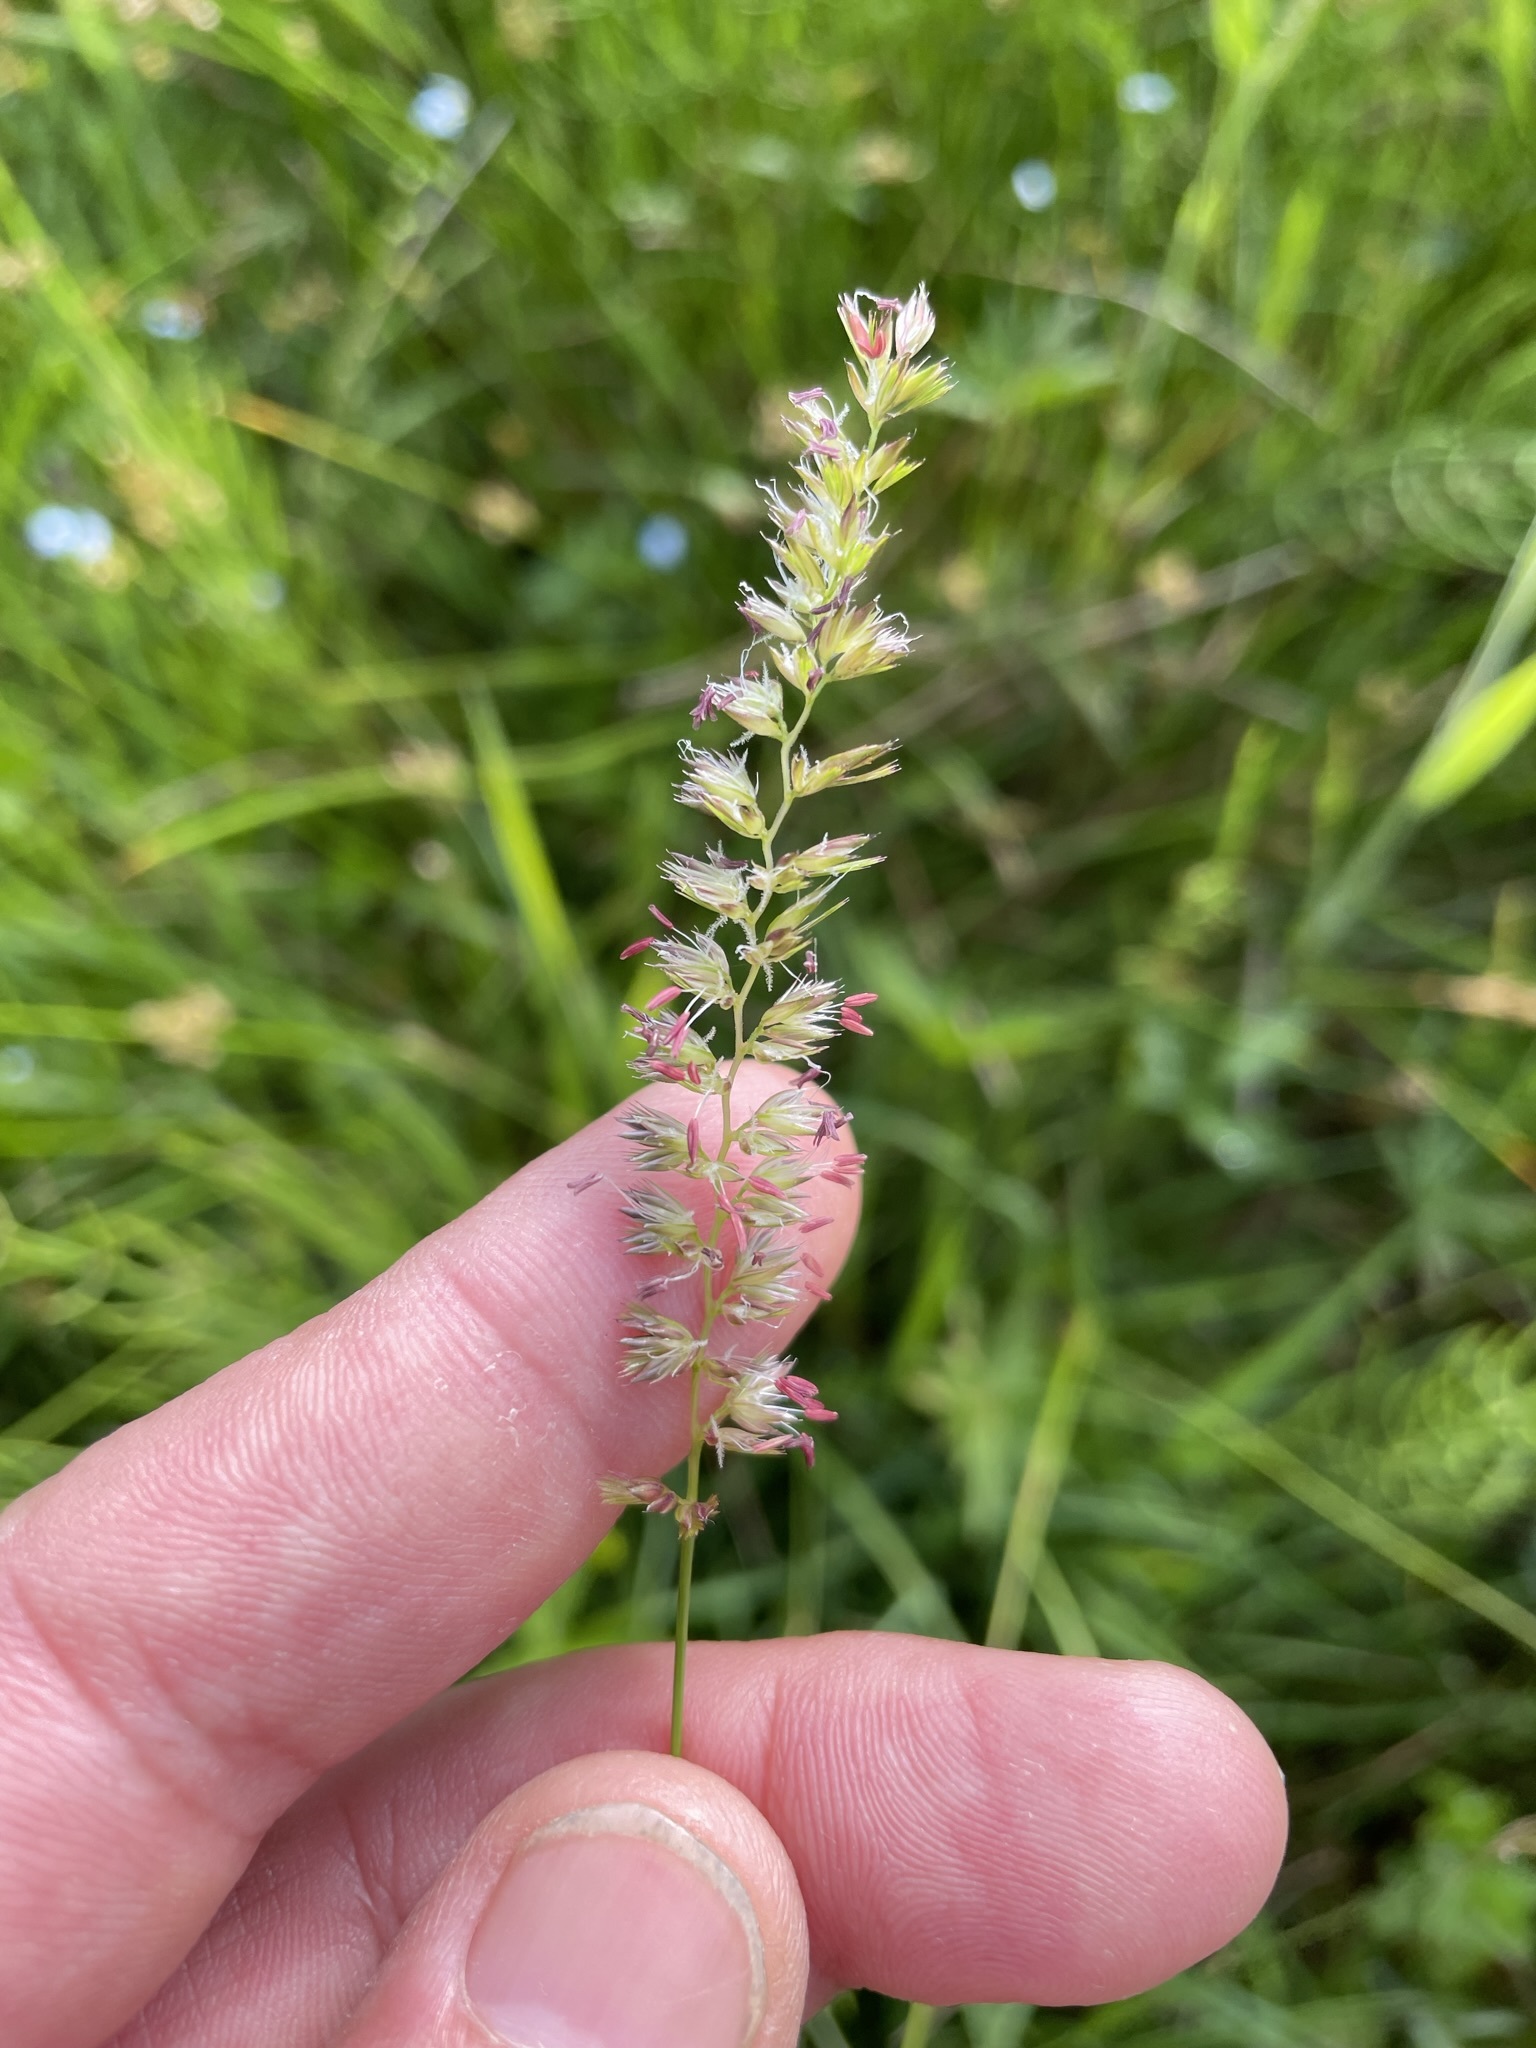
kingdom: Plantae
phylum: Tracheophyta
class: Liliopsida
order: Poales
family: Poaceae
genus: Cynosurus
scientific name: Cynosurus cristatus
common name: Crested dog's-tail
